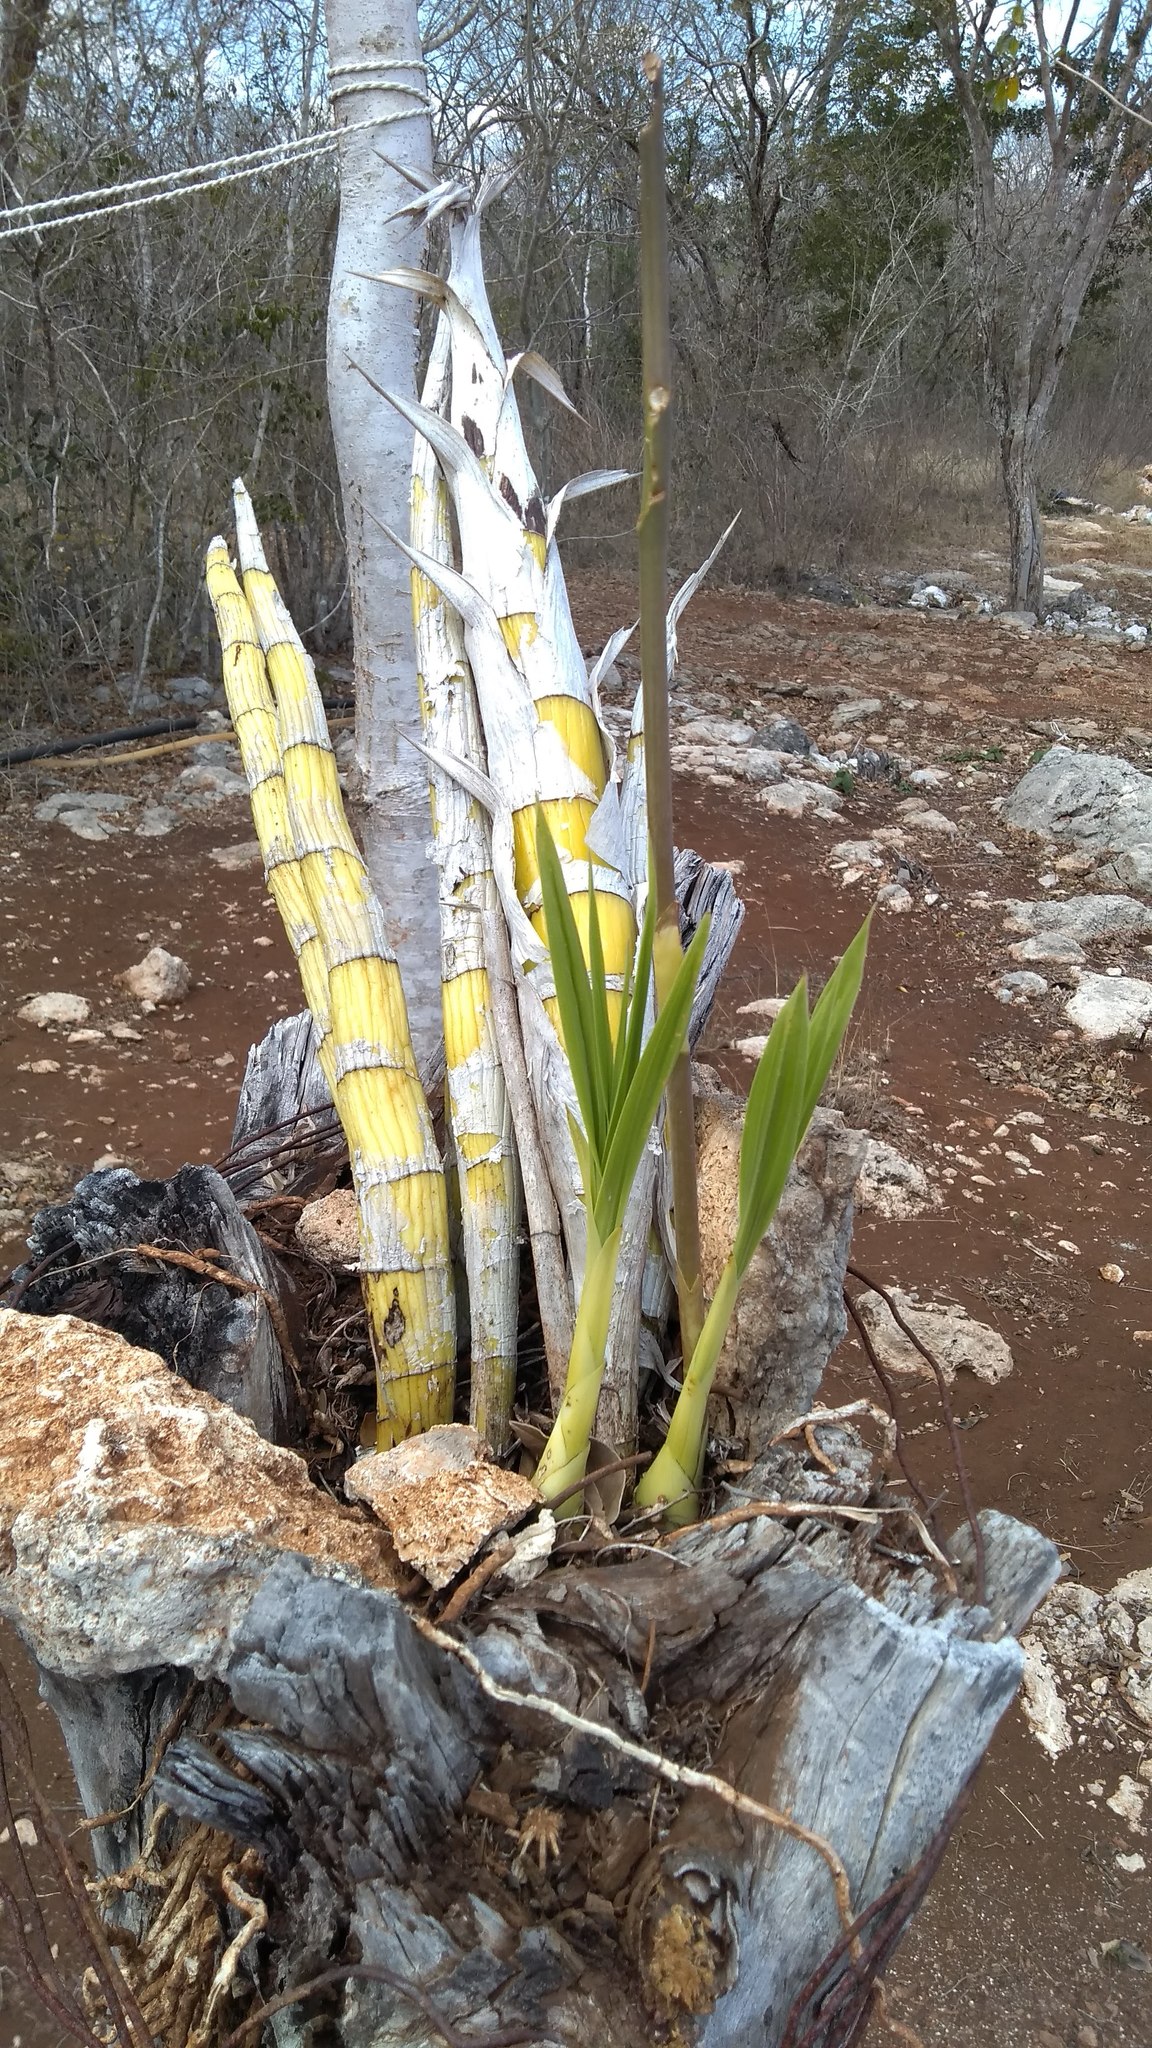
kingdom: Plantae
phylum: Tracheophyta
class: Liliopsida
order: Asparagales
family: Orchidaceae
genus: Cyrtopodium
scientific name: Cyrtopodium macrobulbon
